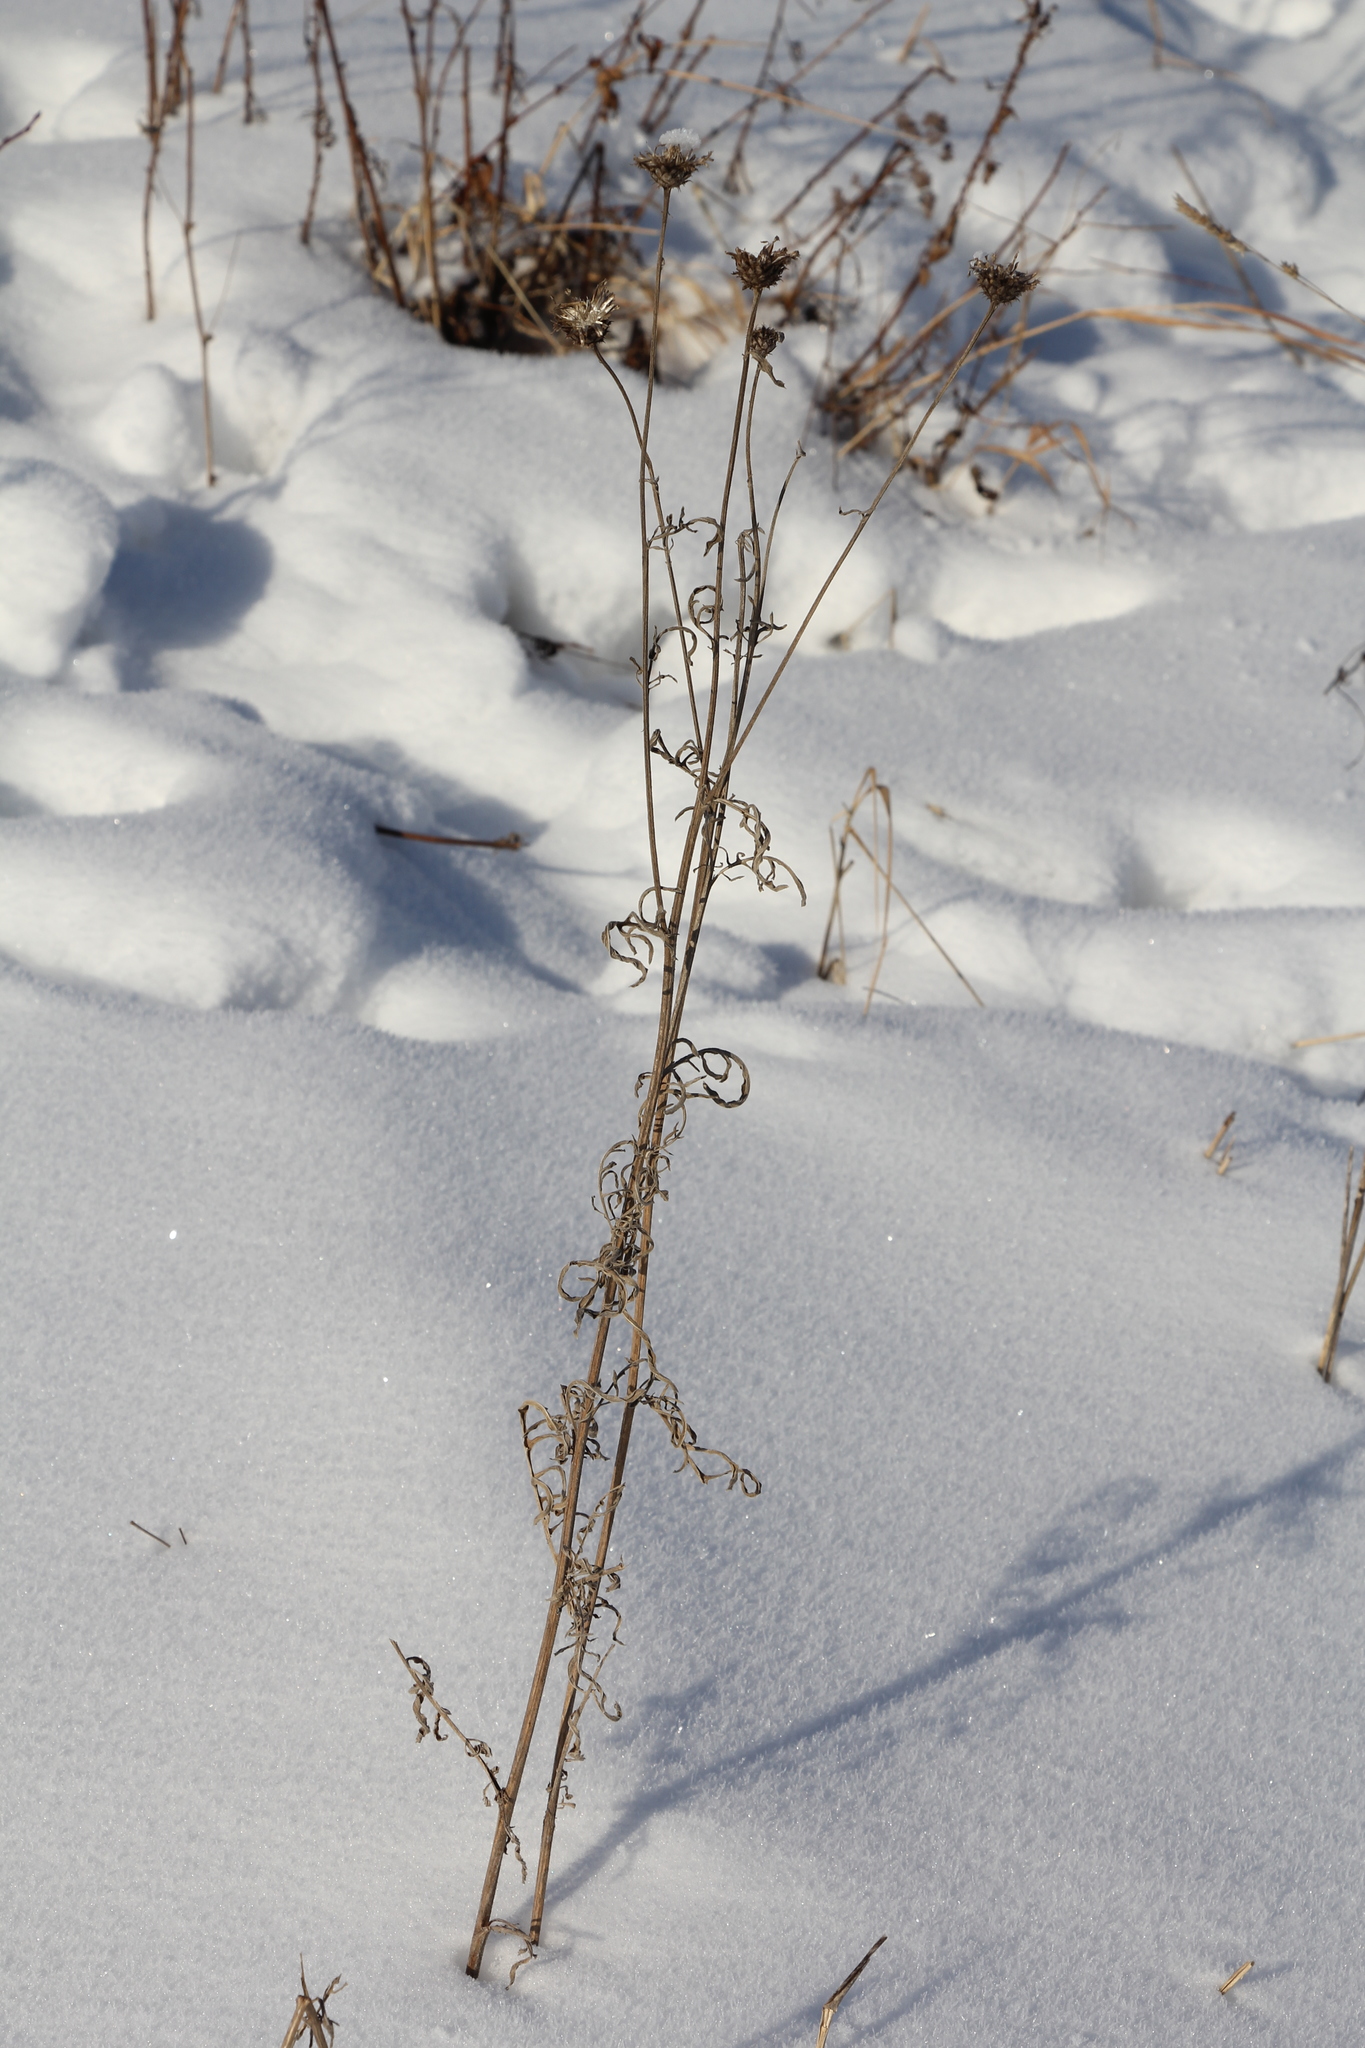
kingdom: Plantae
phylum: Tracheophyta
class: Magnoliopsida
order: Asterales
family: Asteraceae
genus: Centaurea
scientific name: Centaurea scabiosa
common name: Greater knapweed
